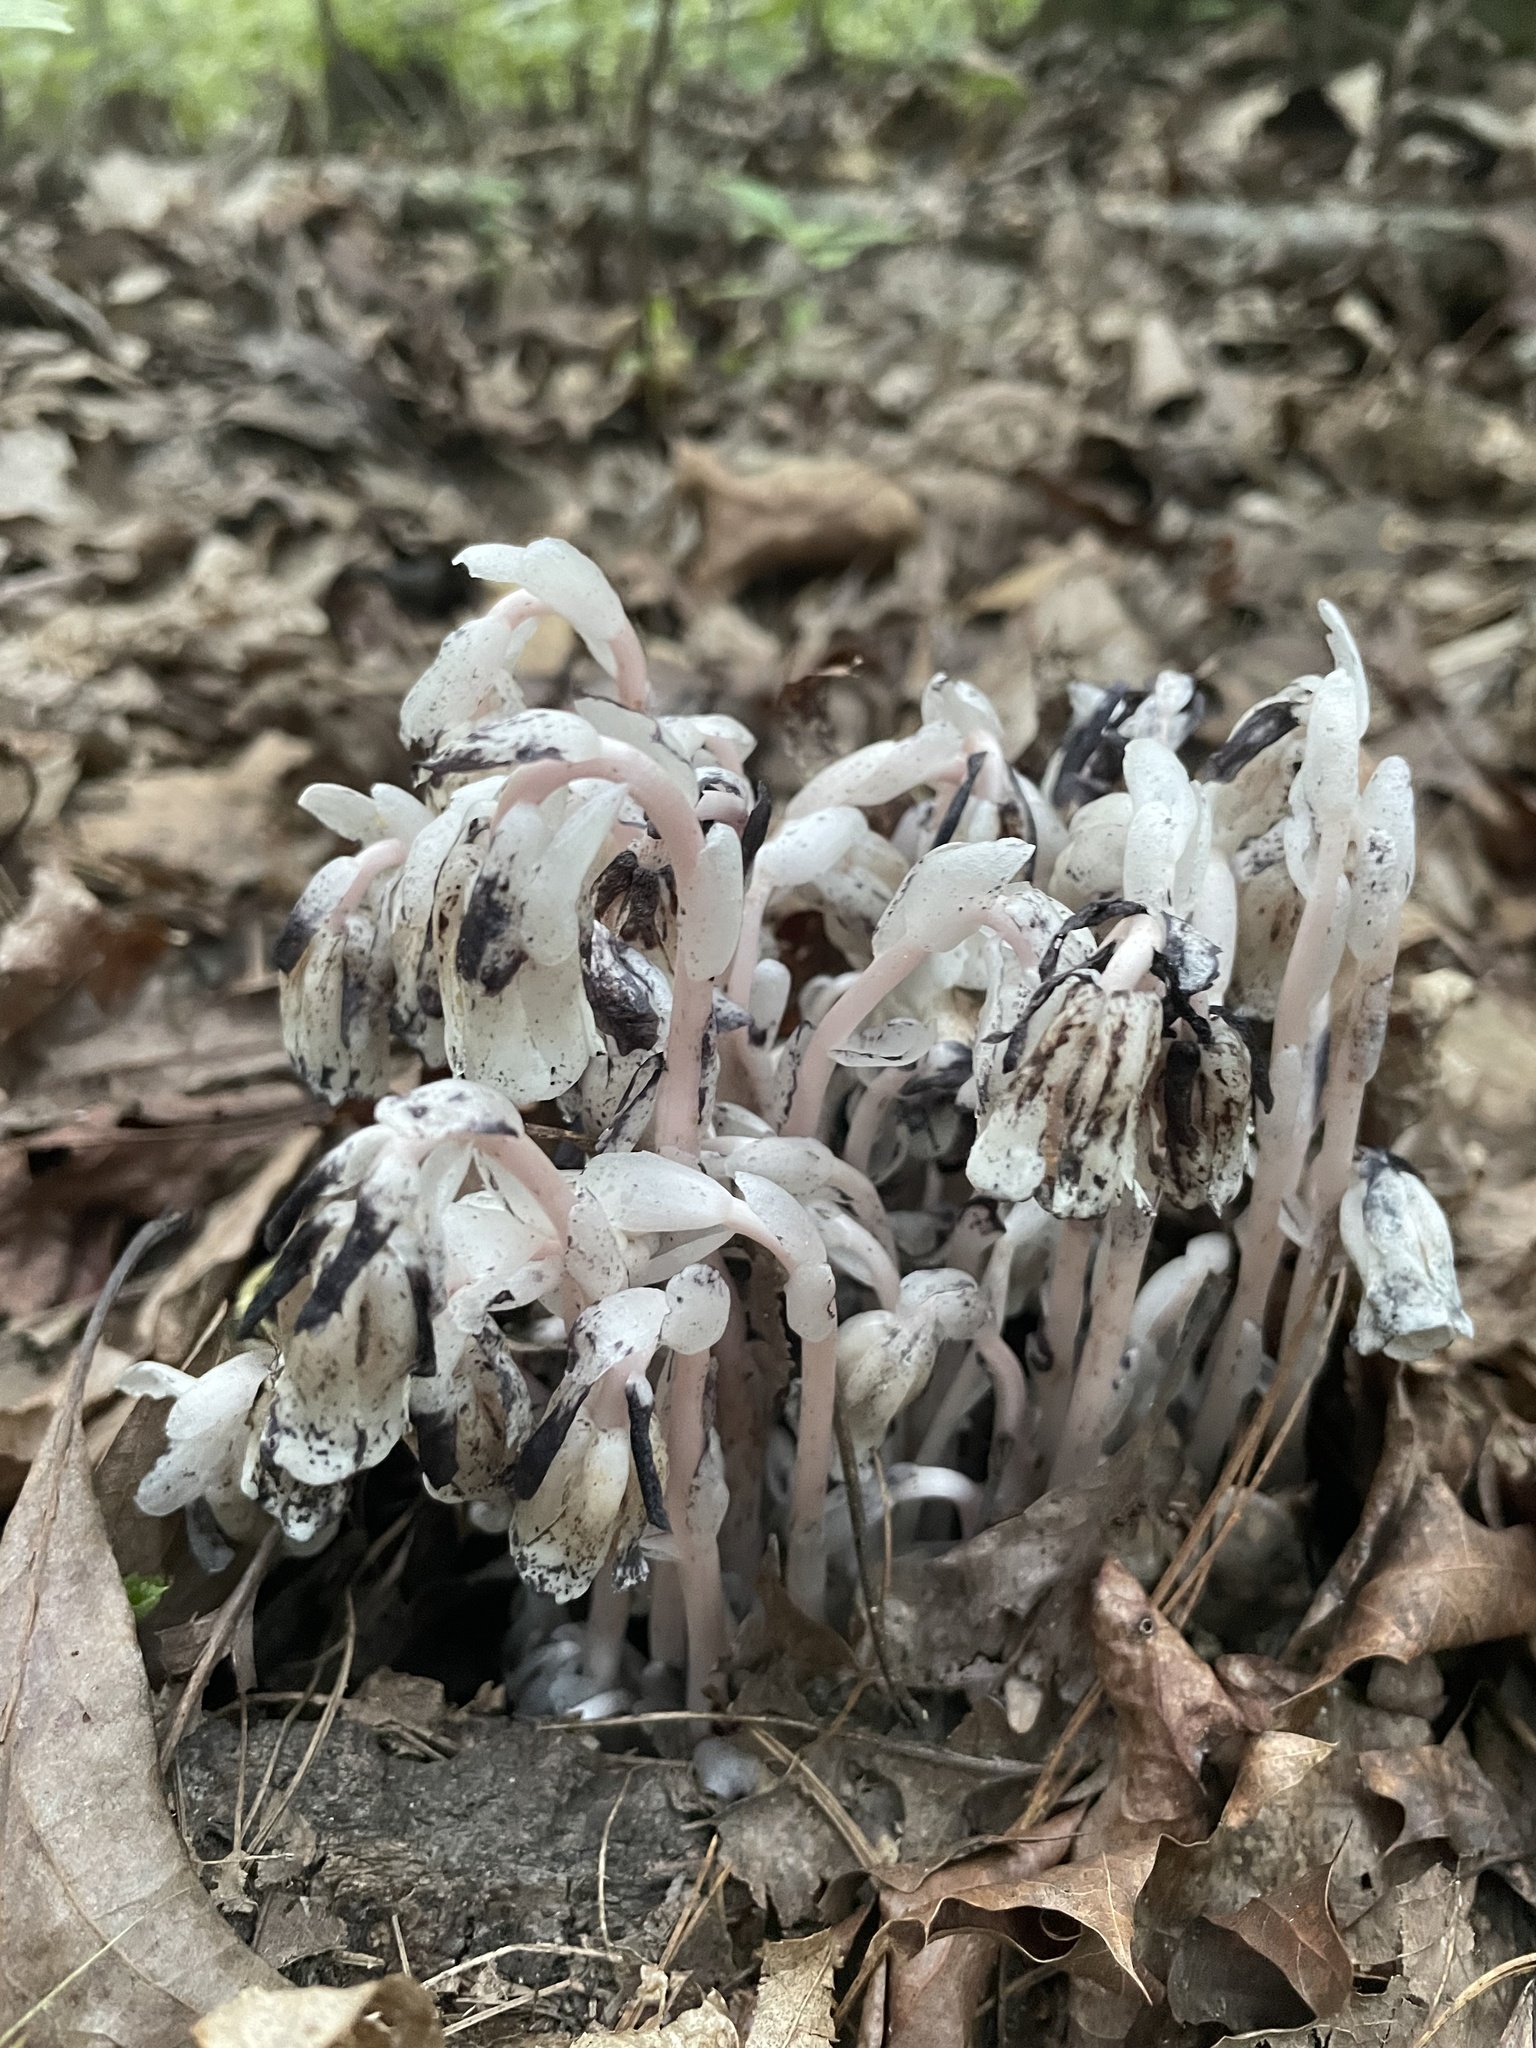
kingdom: Plantae
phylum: Tracheophyta
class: Magnoliopsida
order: Ericales
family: Ericaceae
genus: Monotropa
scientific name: Monotropa uniflora
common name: Convulsion root
